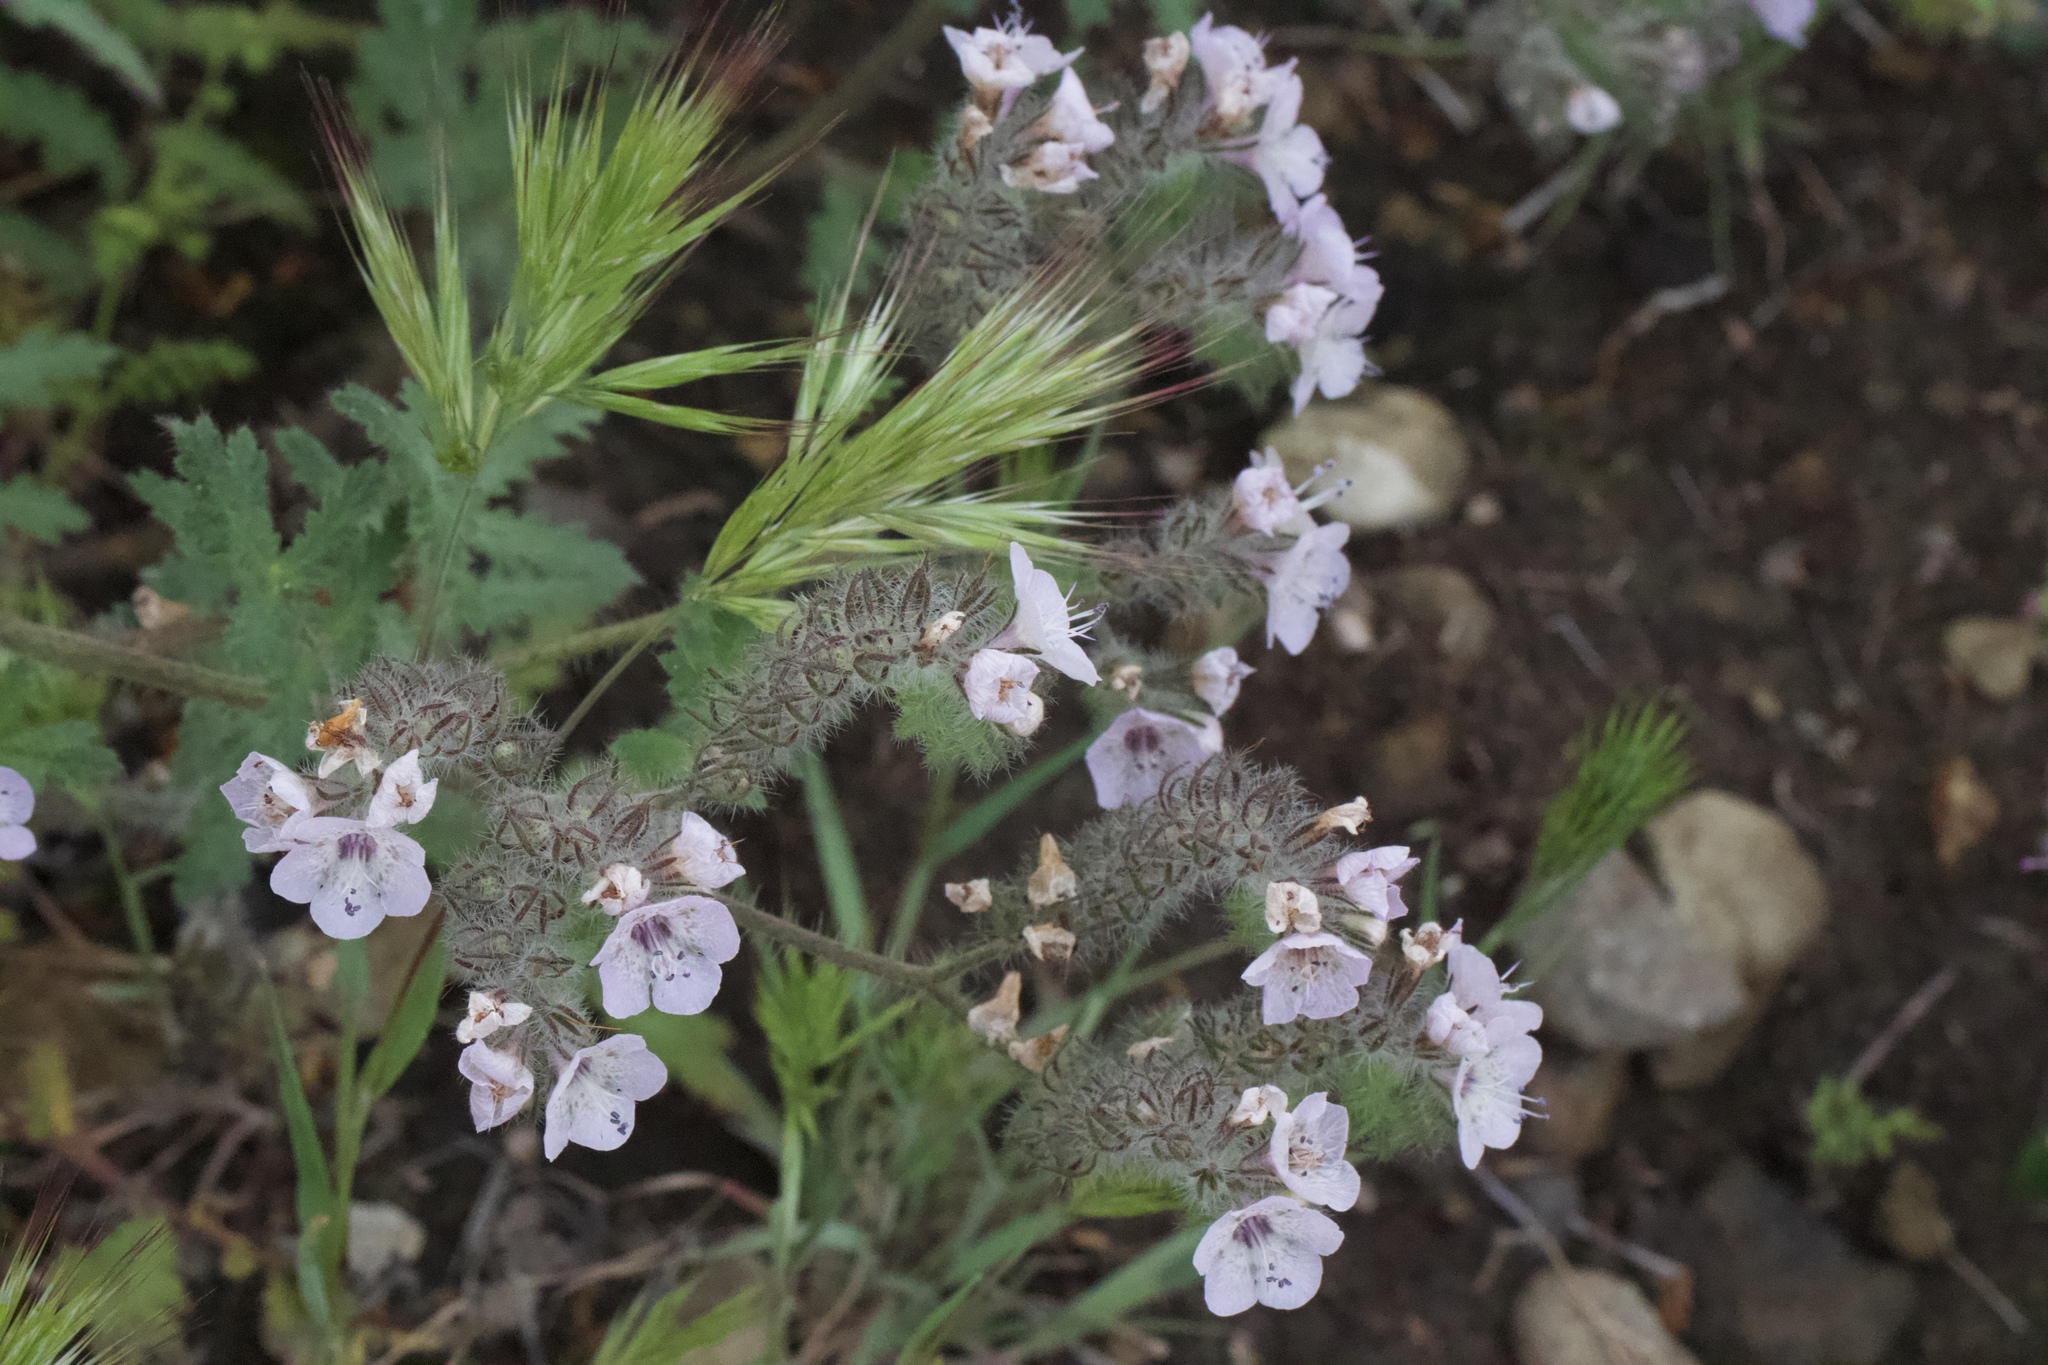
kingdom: Plantae
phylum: Tracheophyta
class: Magnoliopsida
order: Boraginales
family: Hydrophyllaceae
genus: Phacelia
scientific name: Phacelia cicutaria
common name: Caterpillar phacelia
